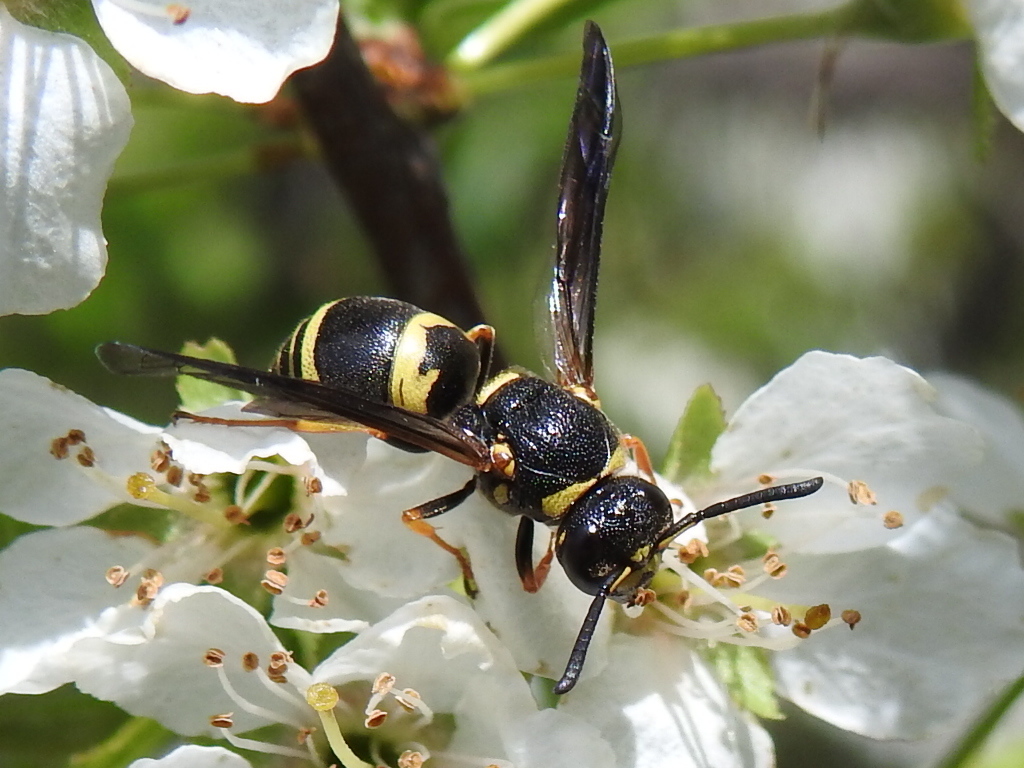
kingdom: Animalia
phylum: Arthropoda
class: Insecta
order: Hymenoptera
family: Eumenidae
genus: Euodynerus
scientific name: Euodynerus foraminatus
